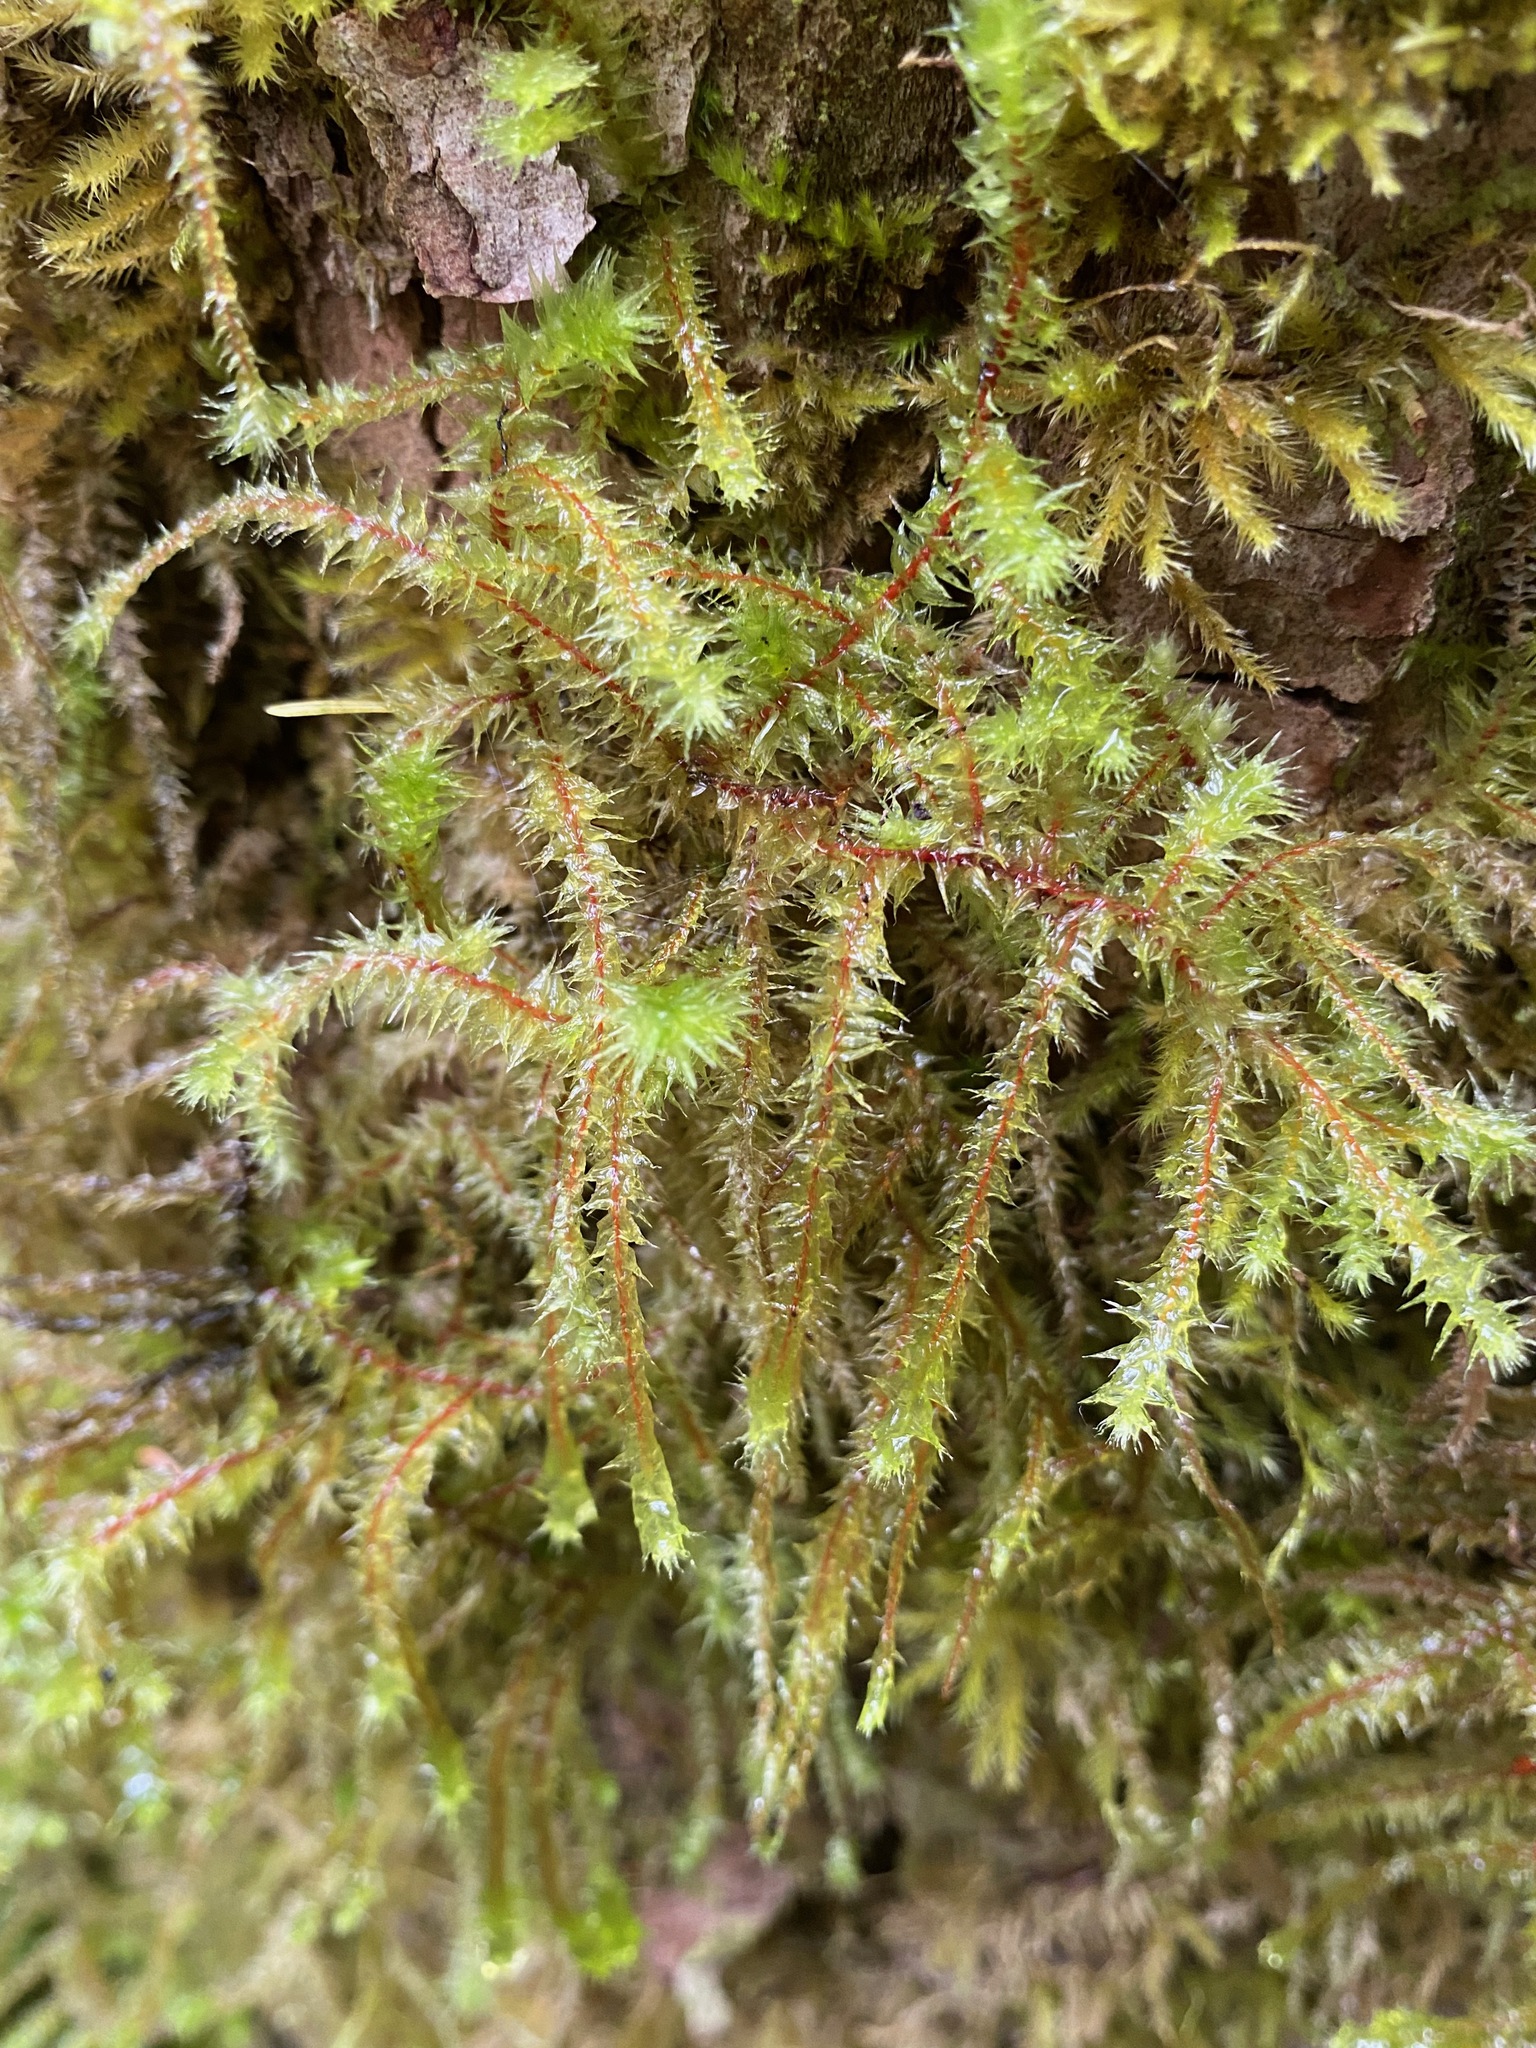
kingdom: Plantae
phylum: Bryophyta
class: Bryopsida
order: Hypnales
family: Hylocomiaceae
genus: Rhytidiadelphus
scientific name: Rhytidiadelphus loreus
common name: Lanky moss
